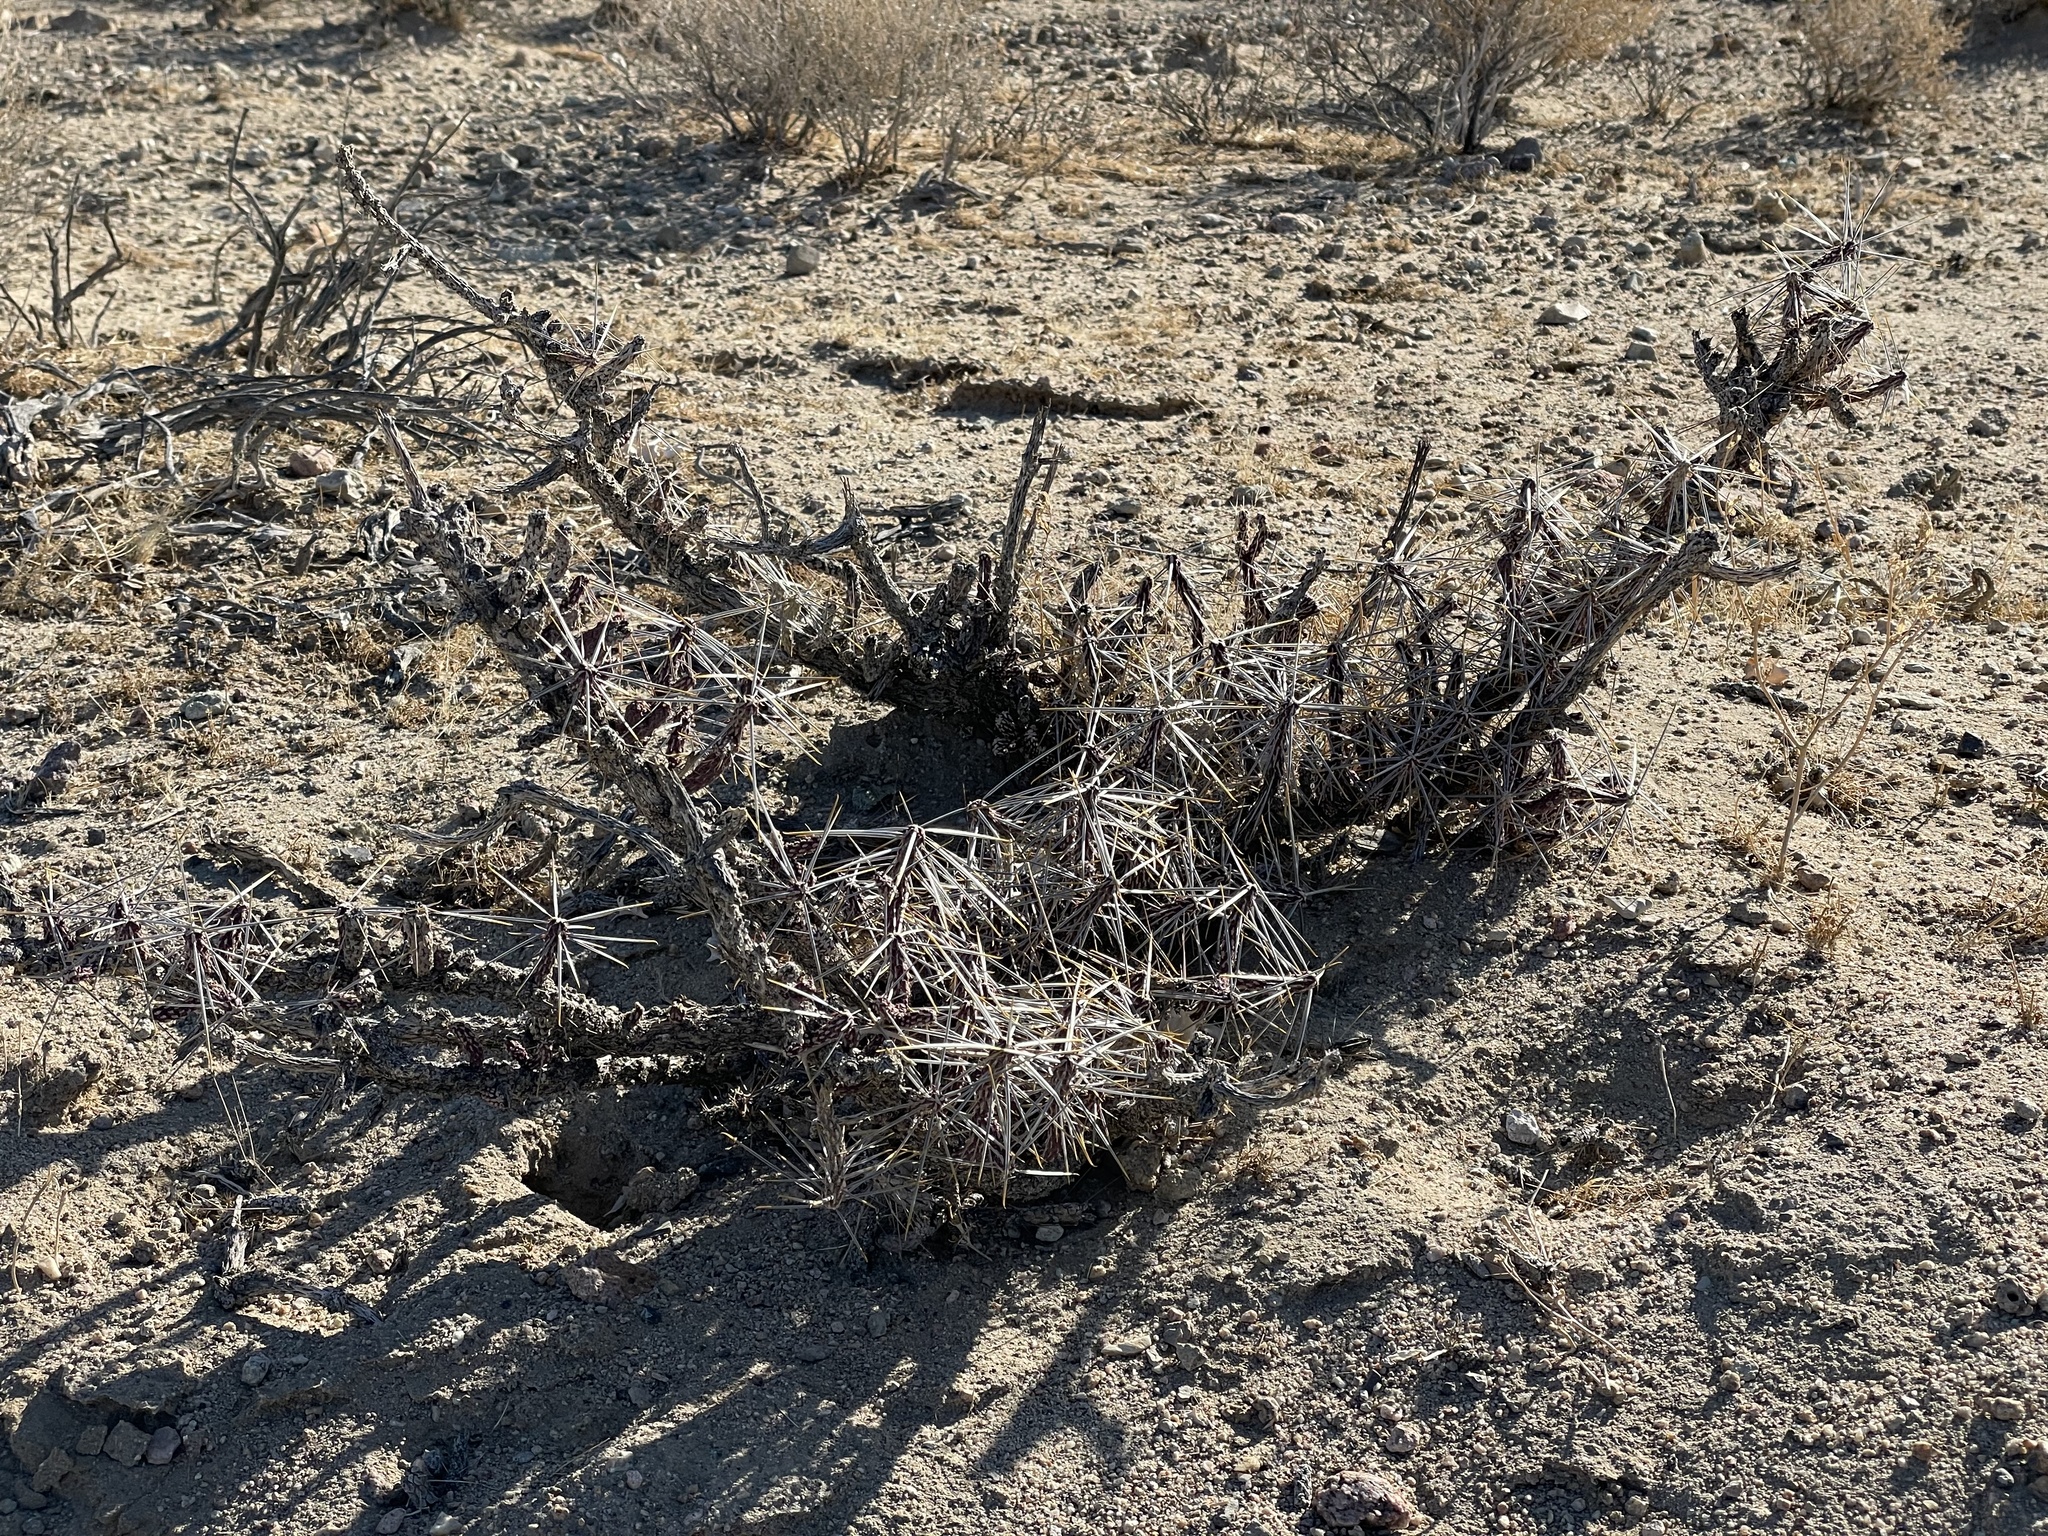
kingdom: Plantae
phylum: Tracheophyta
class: Magnoliopsida
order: Caryophyllales
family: Cactaceae
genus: Cylindropuntia
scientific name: Cylindropuntia ramosissima
